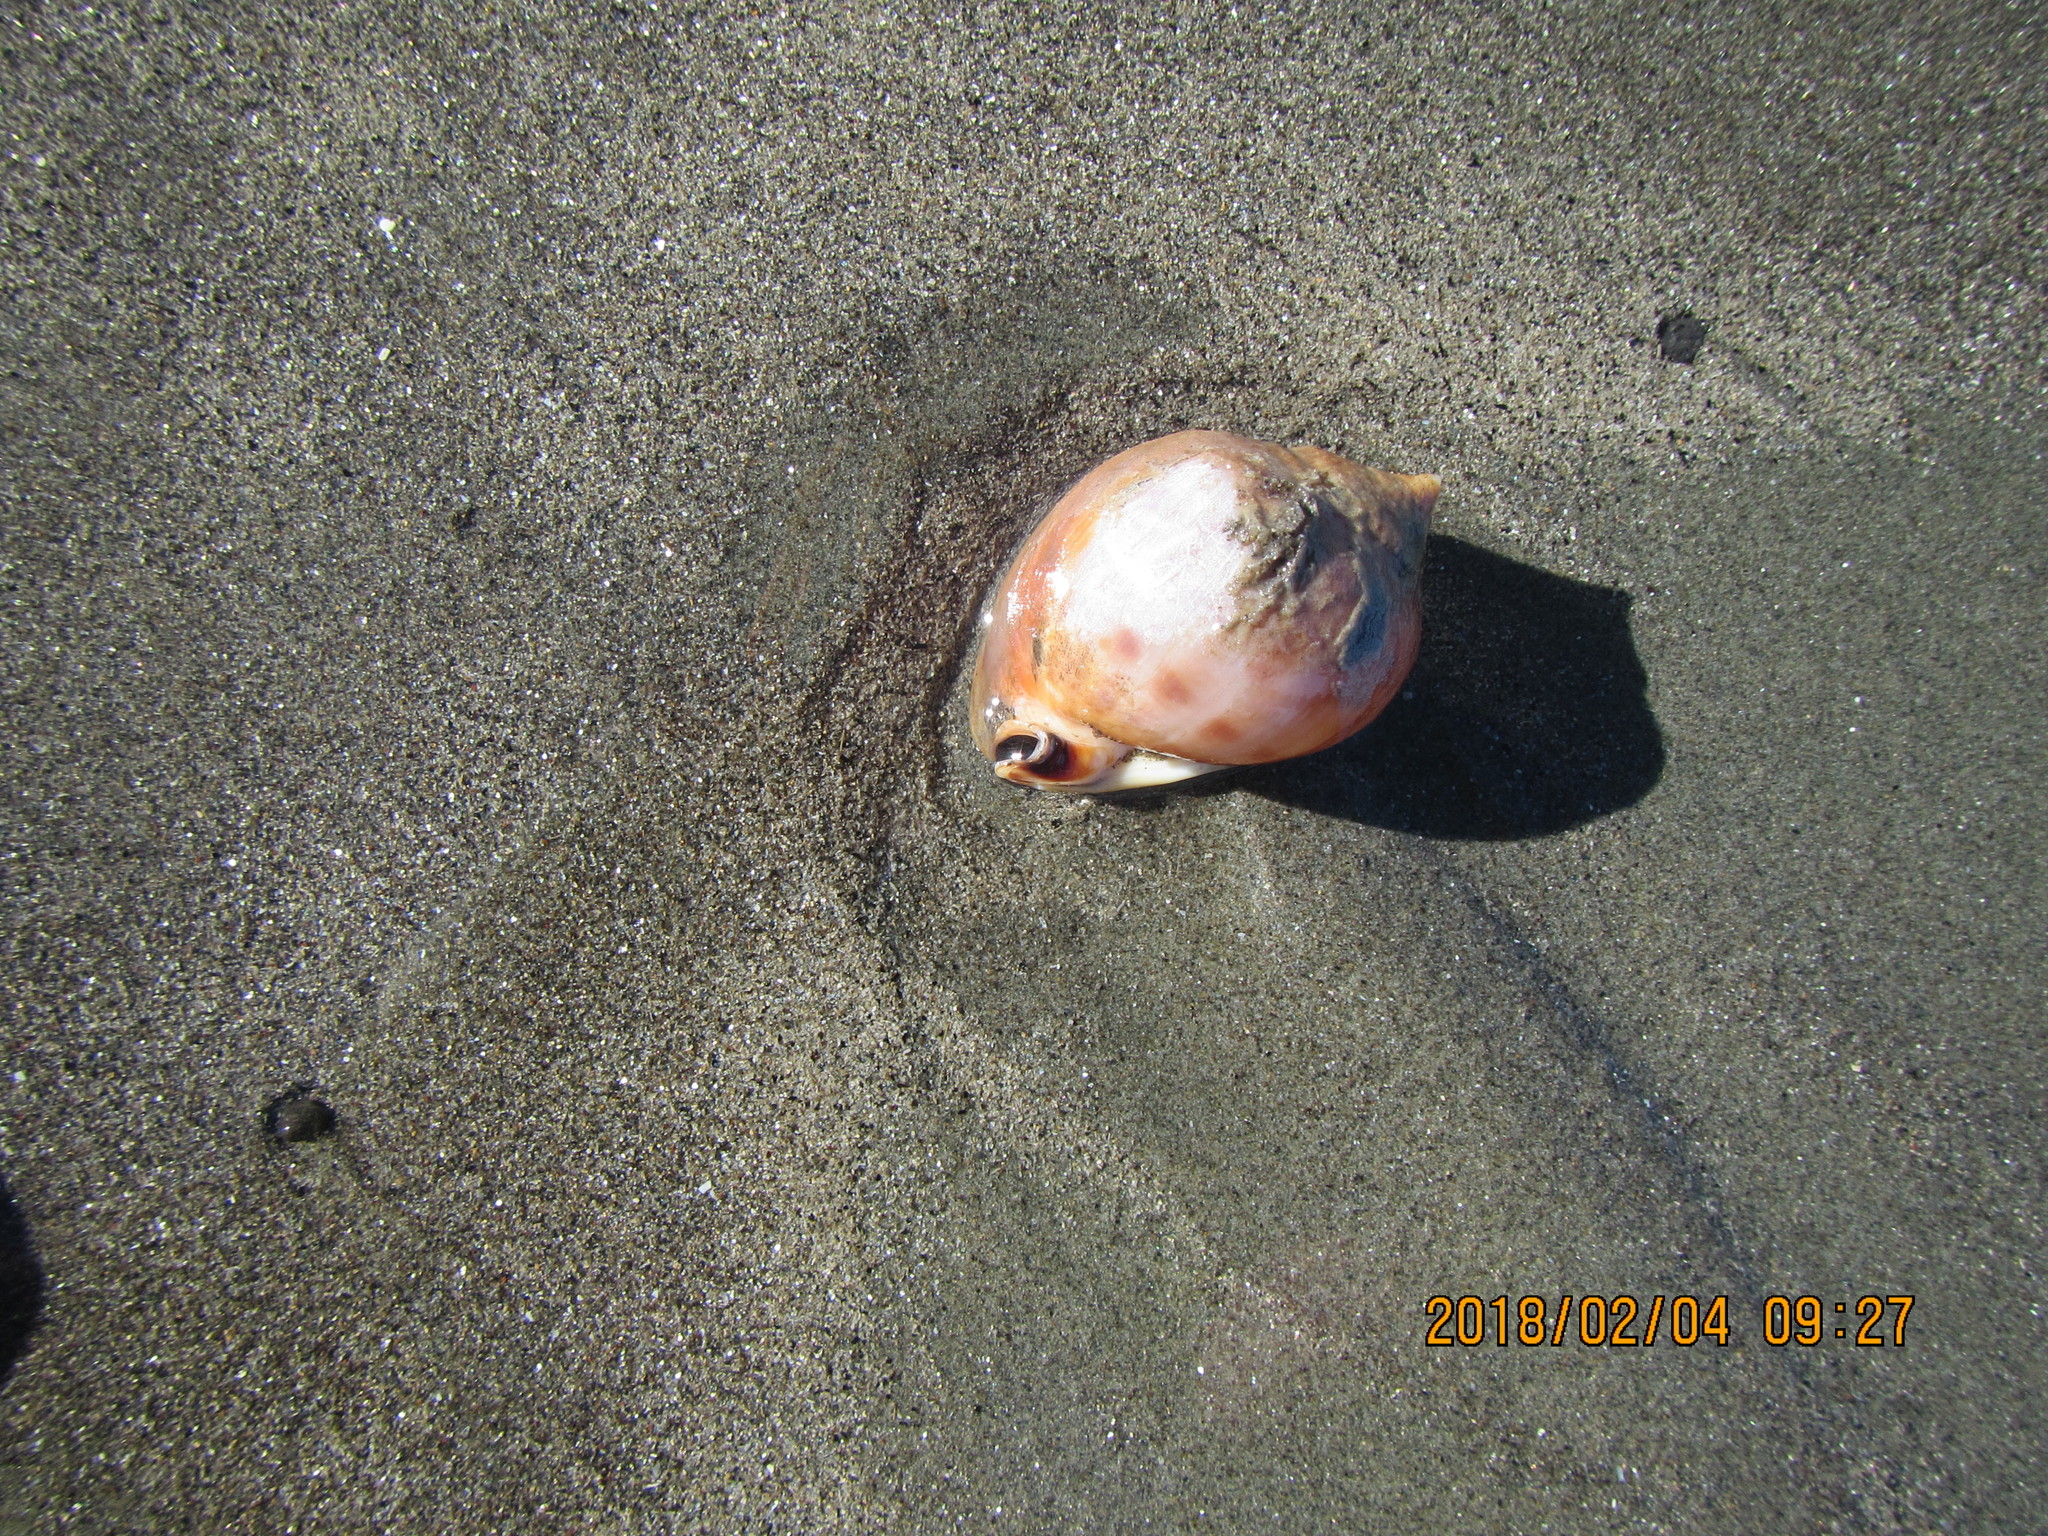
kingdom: Animalia
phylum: Mollusca
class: Gastropoda
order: Littorinimorpha
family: Cassidae
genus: Semicassis
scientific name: Semicassis pyrum
